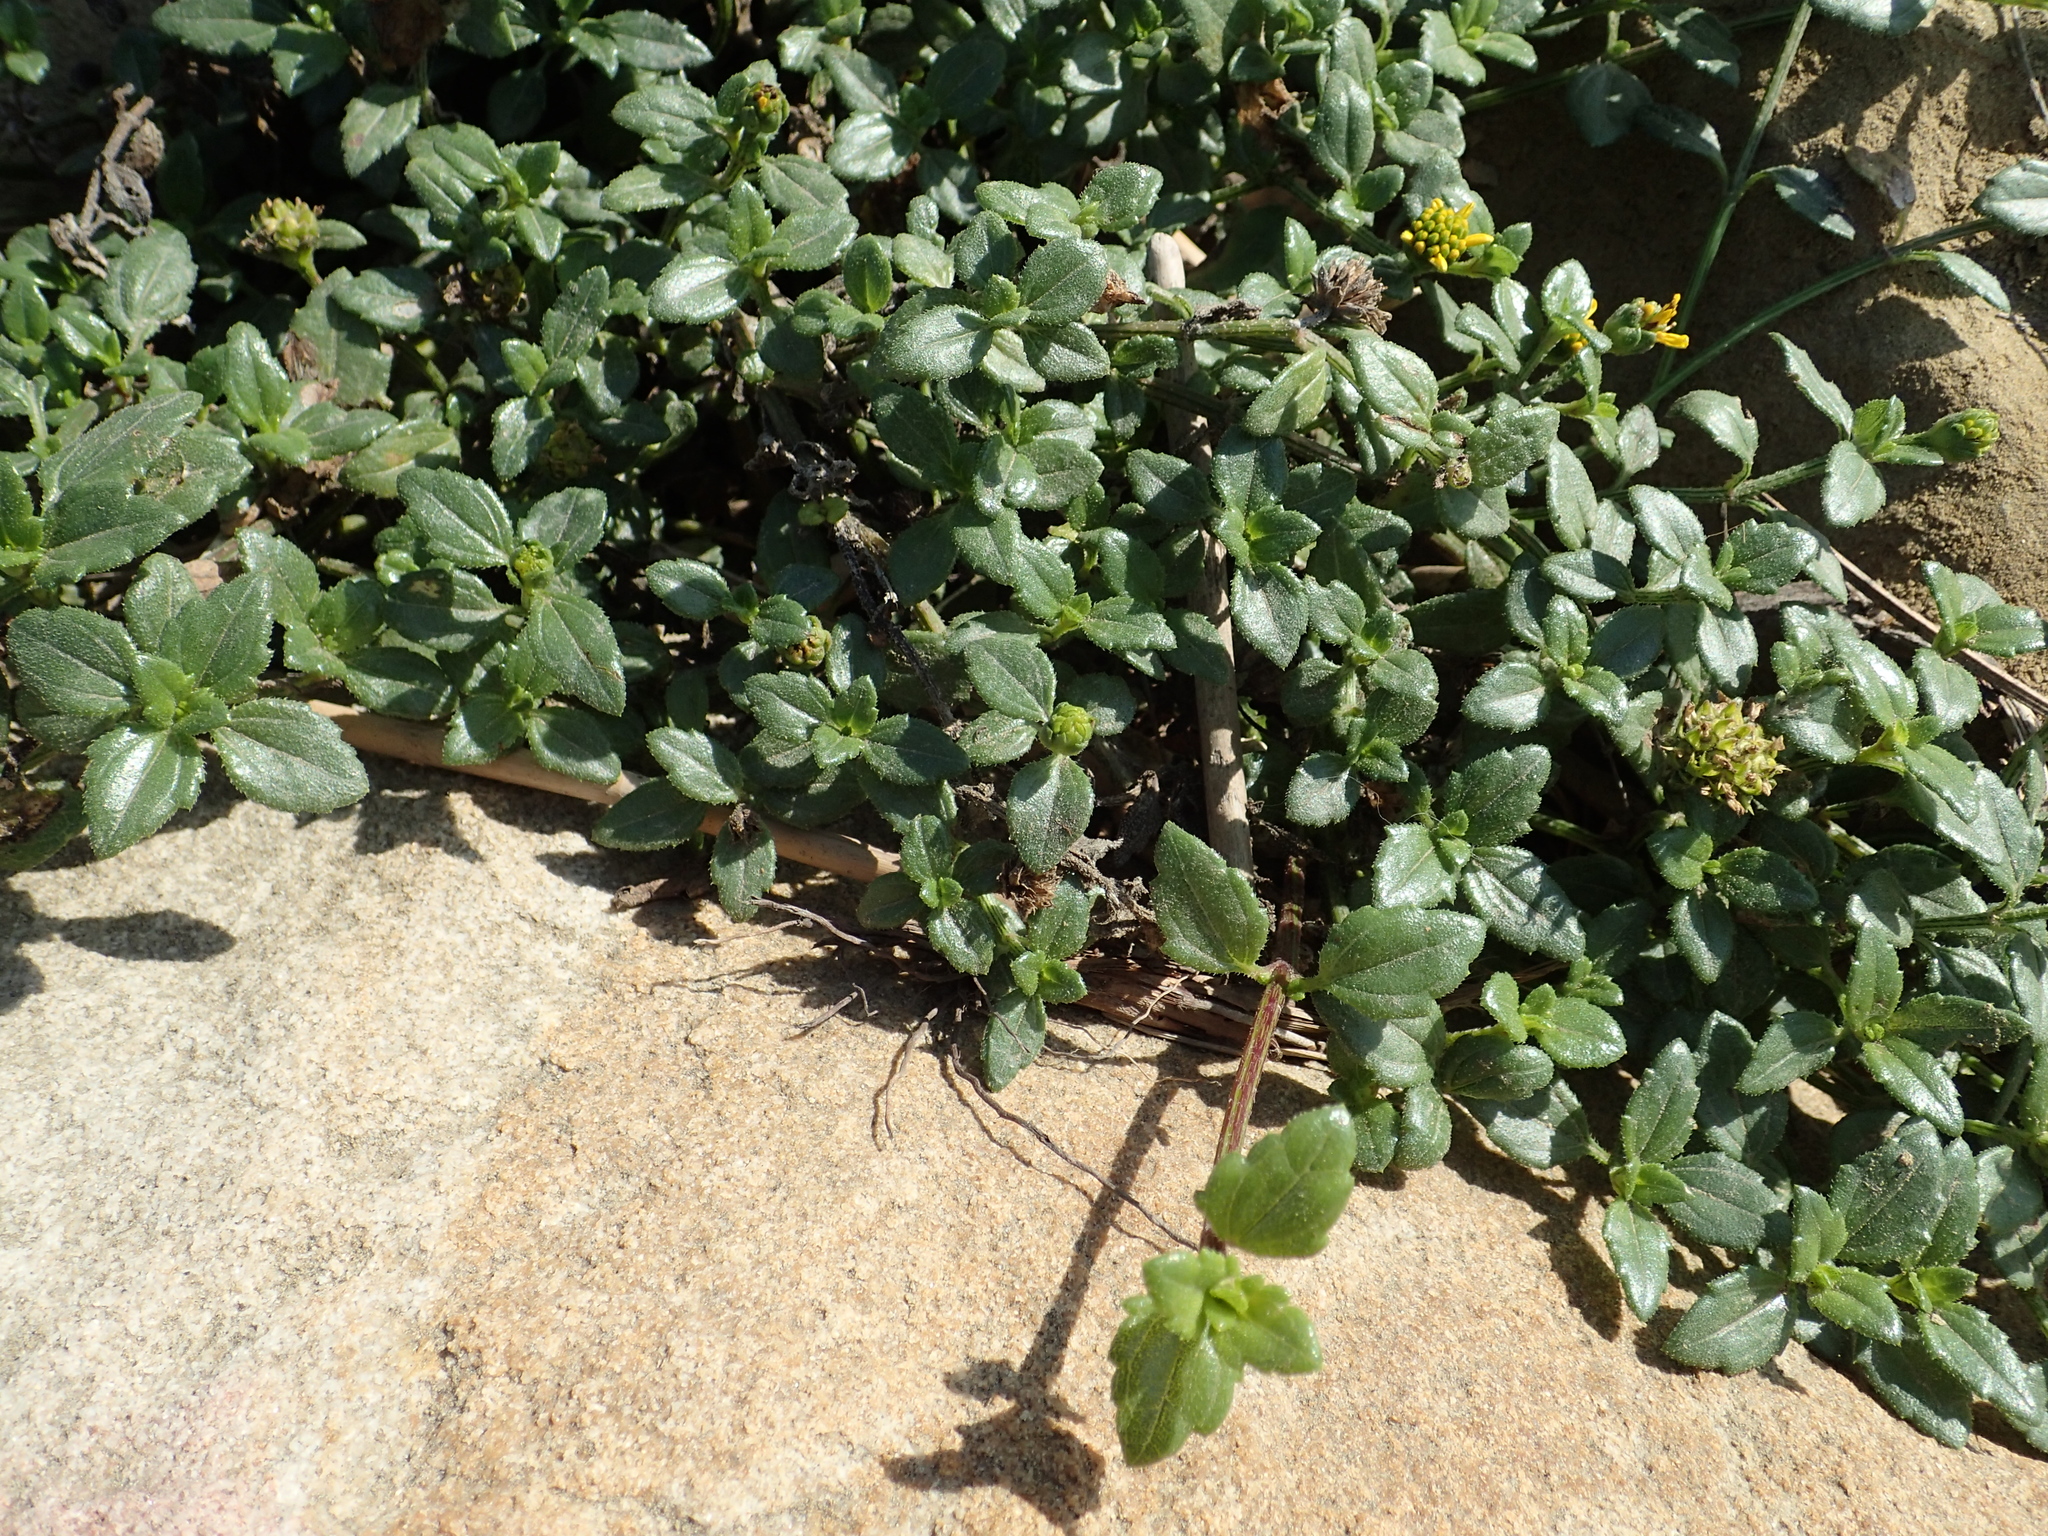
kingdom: Plantae
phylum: Tracheophyta
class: Magnoliopsida
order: Asterales
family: Asteraceae
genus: Melanthera
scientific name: Melanthera prostrata
